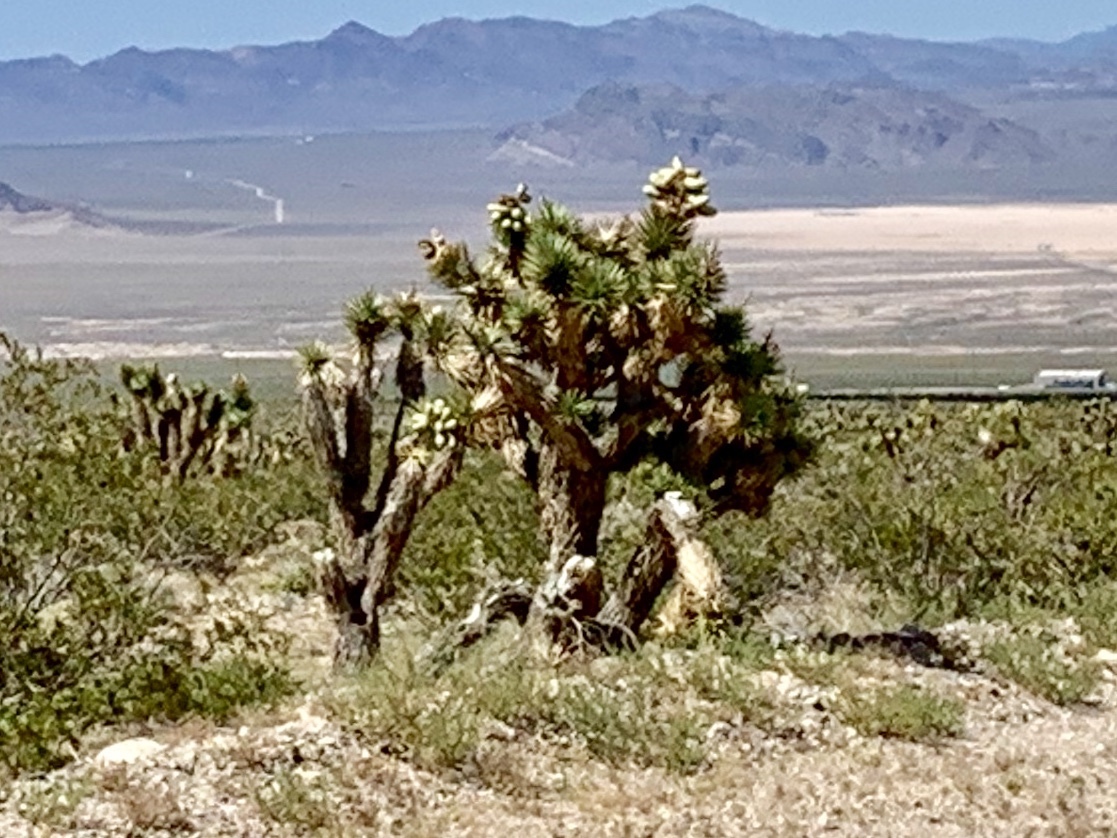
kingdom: Plantae
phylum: Tracheophyta
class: Liliopsida
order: Asparagales
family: Asparagaceae
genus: Yucca
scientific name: Yucca brevifolia
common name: Joshua tree
